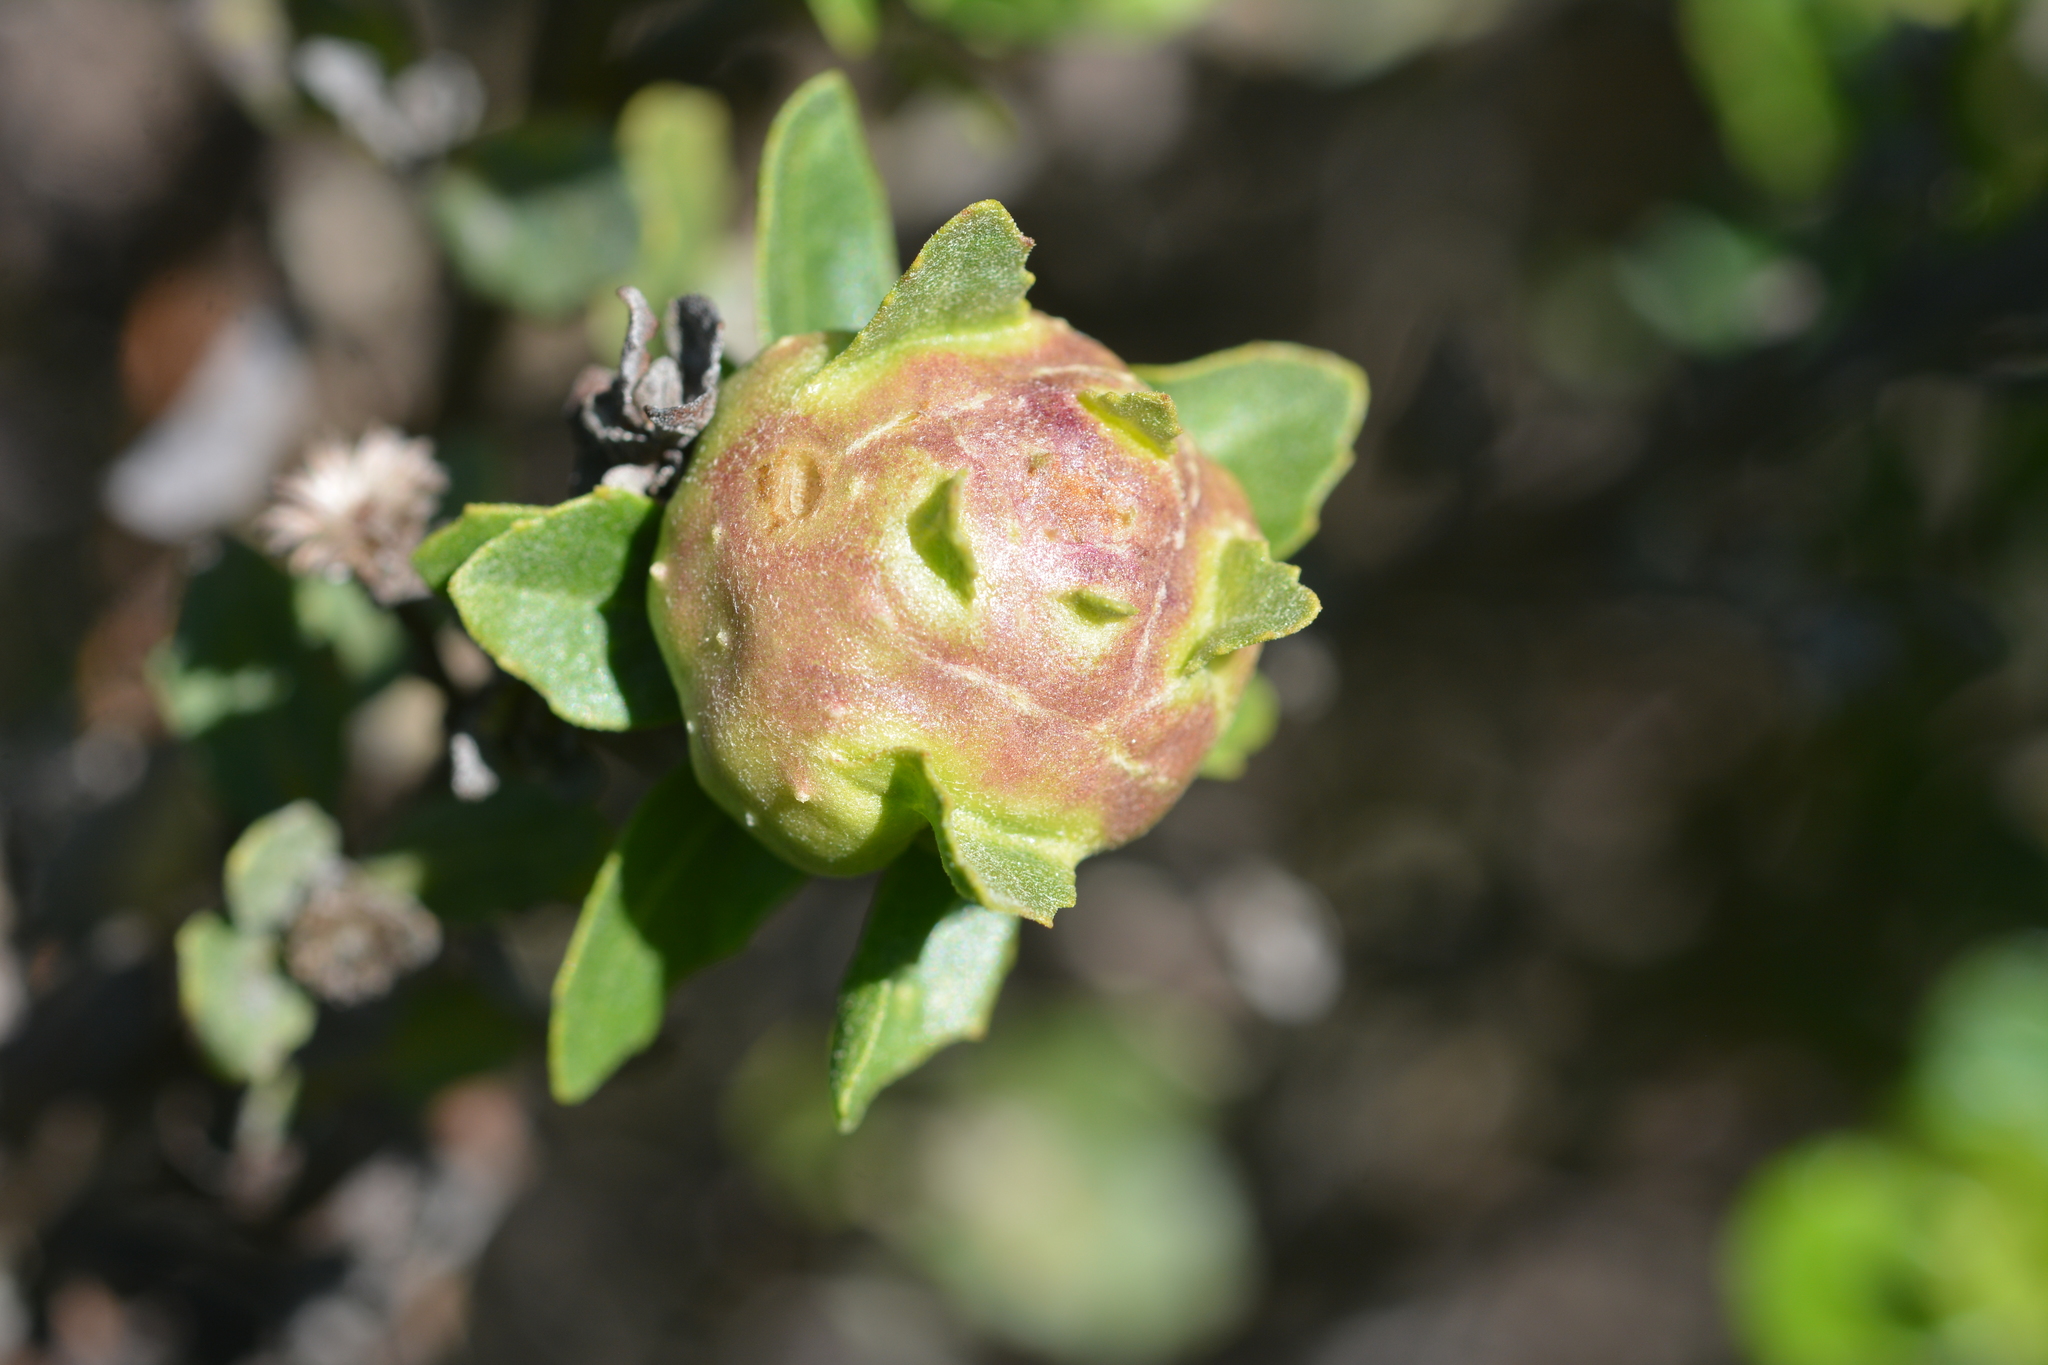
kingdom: Animalia
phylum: Arthropoda
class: Insecta
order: Diptera
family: Cecidomyiidae
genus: Rhopalomyia
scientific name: Rhopalomyia californica
